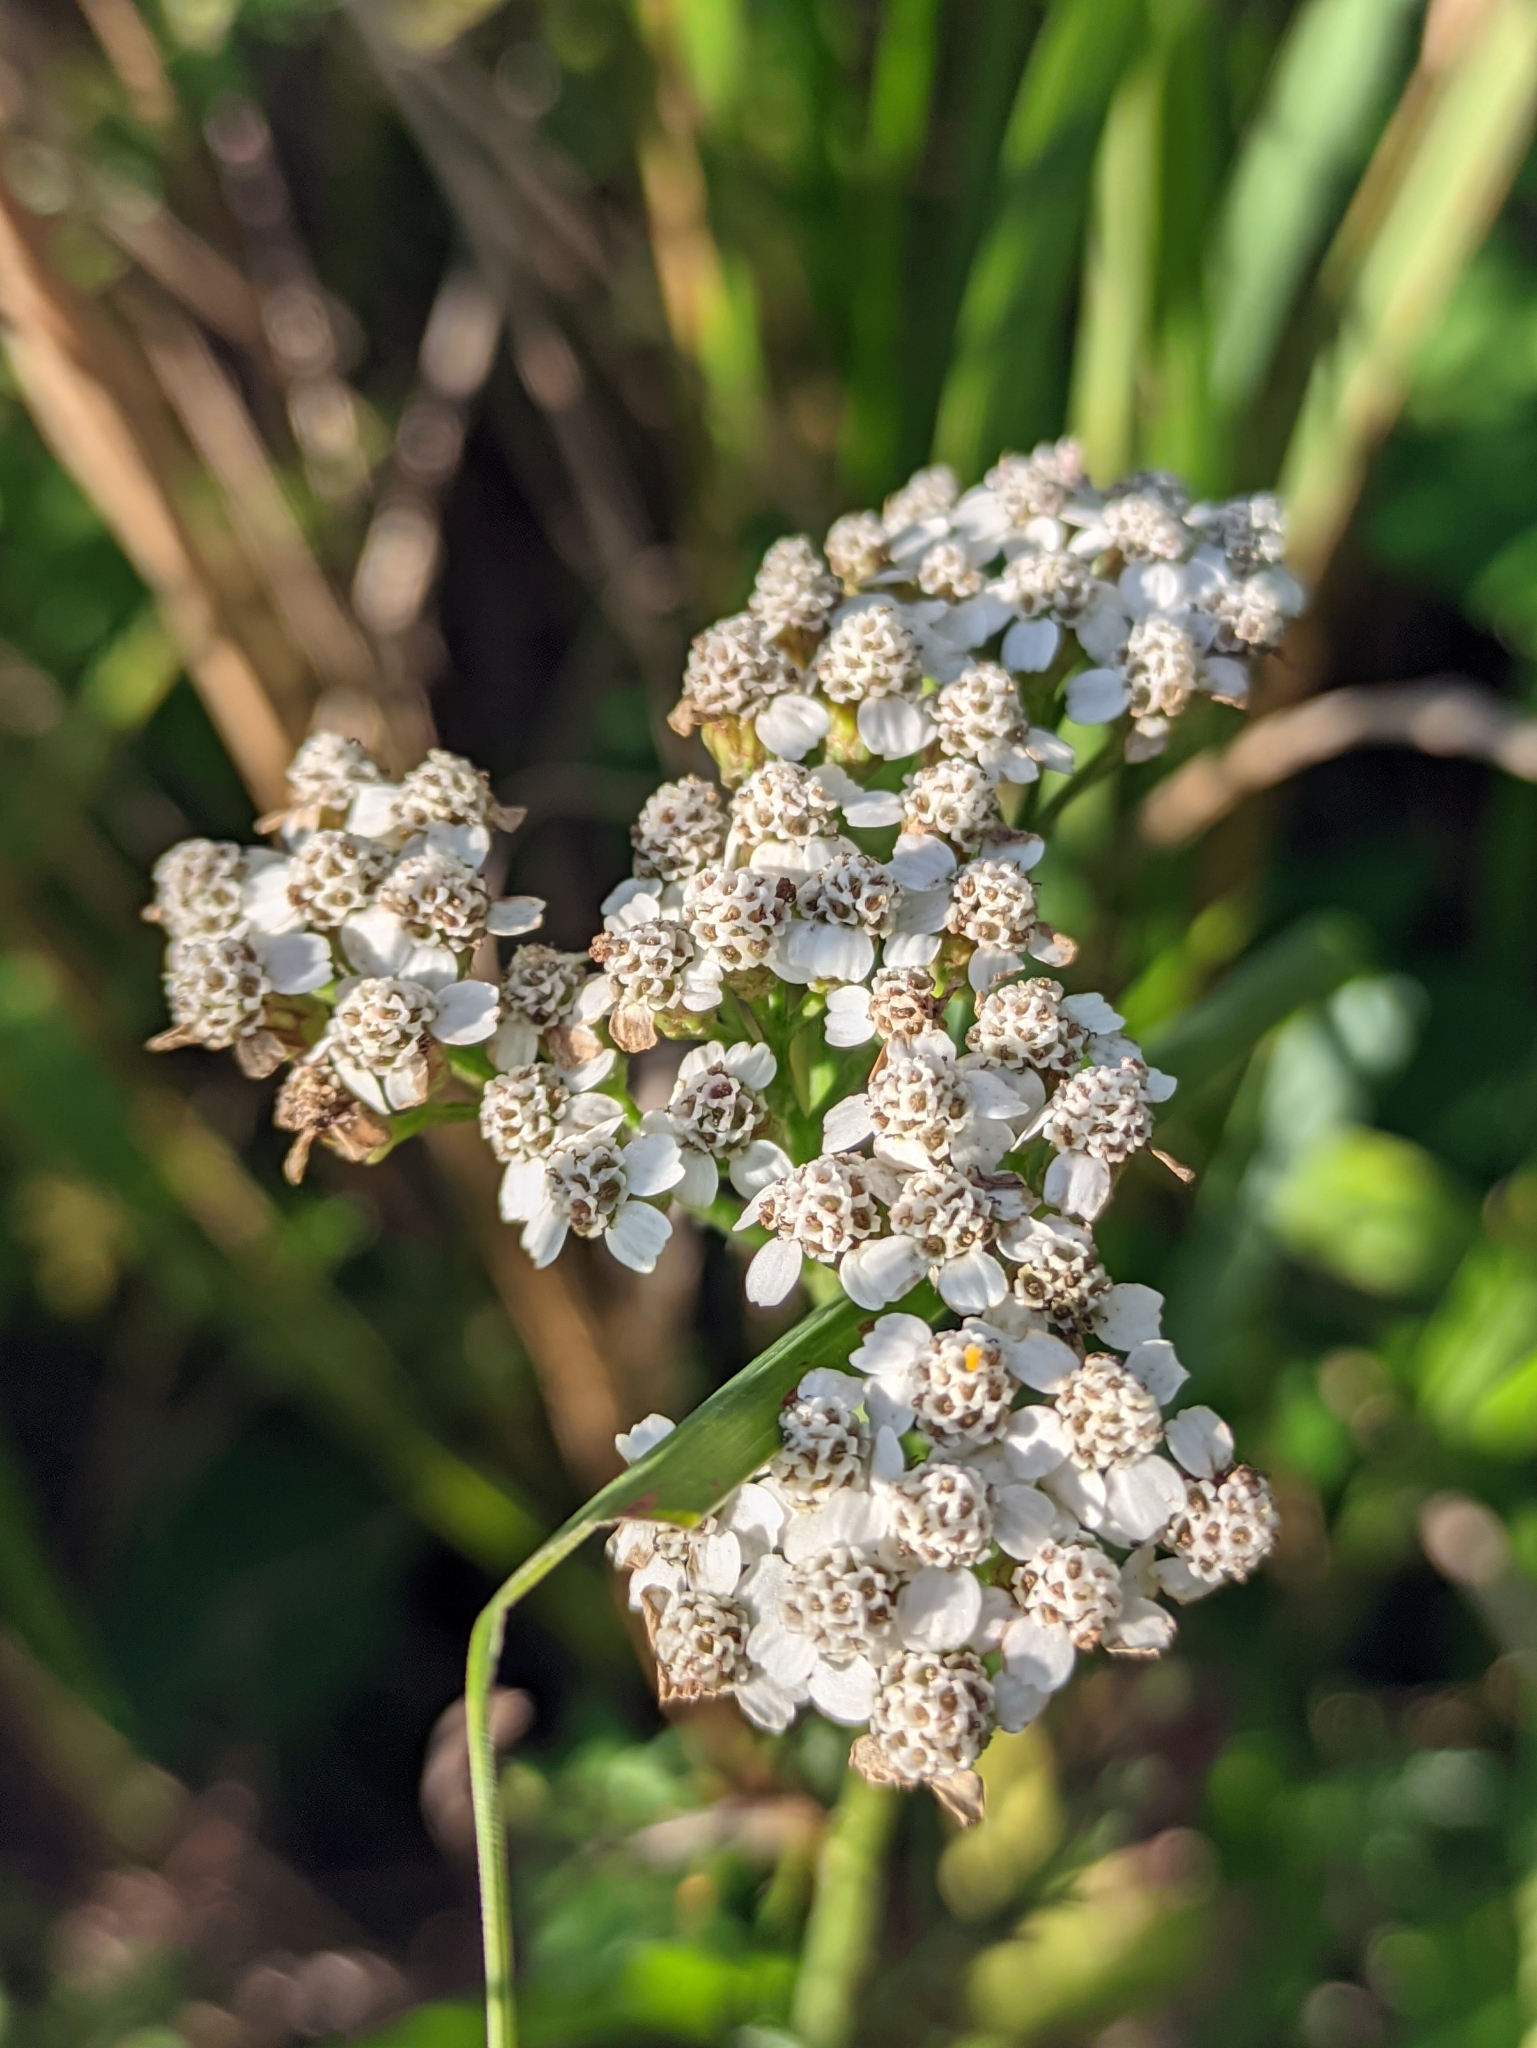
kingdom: Plantae
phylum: Tracheophyta
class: Magnoliopsida
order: Asterales
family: Asteraceae
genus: Achillea
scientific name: Achillea millefolium
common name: Yarrow
